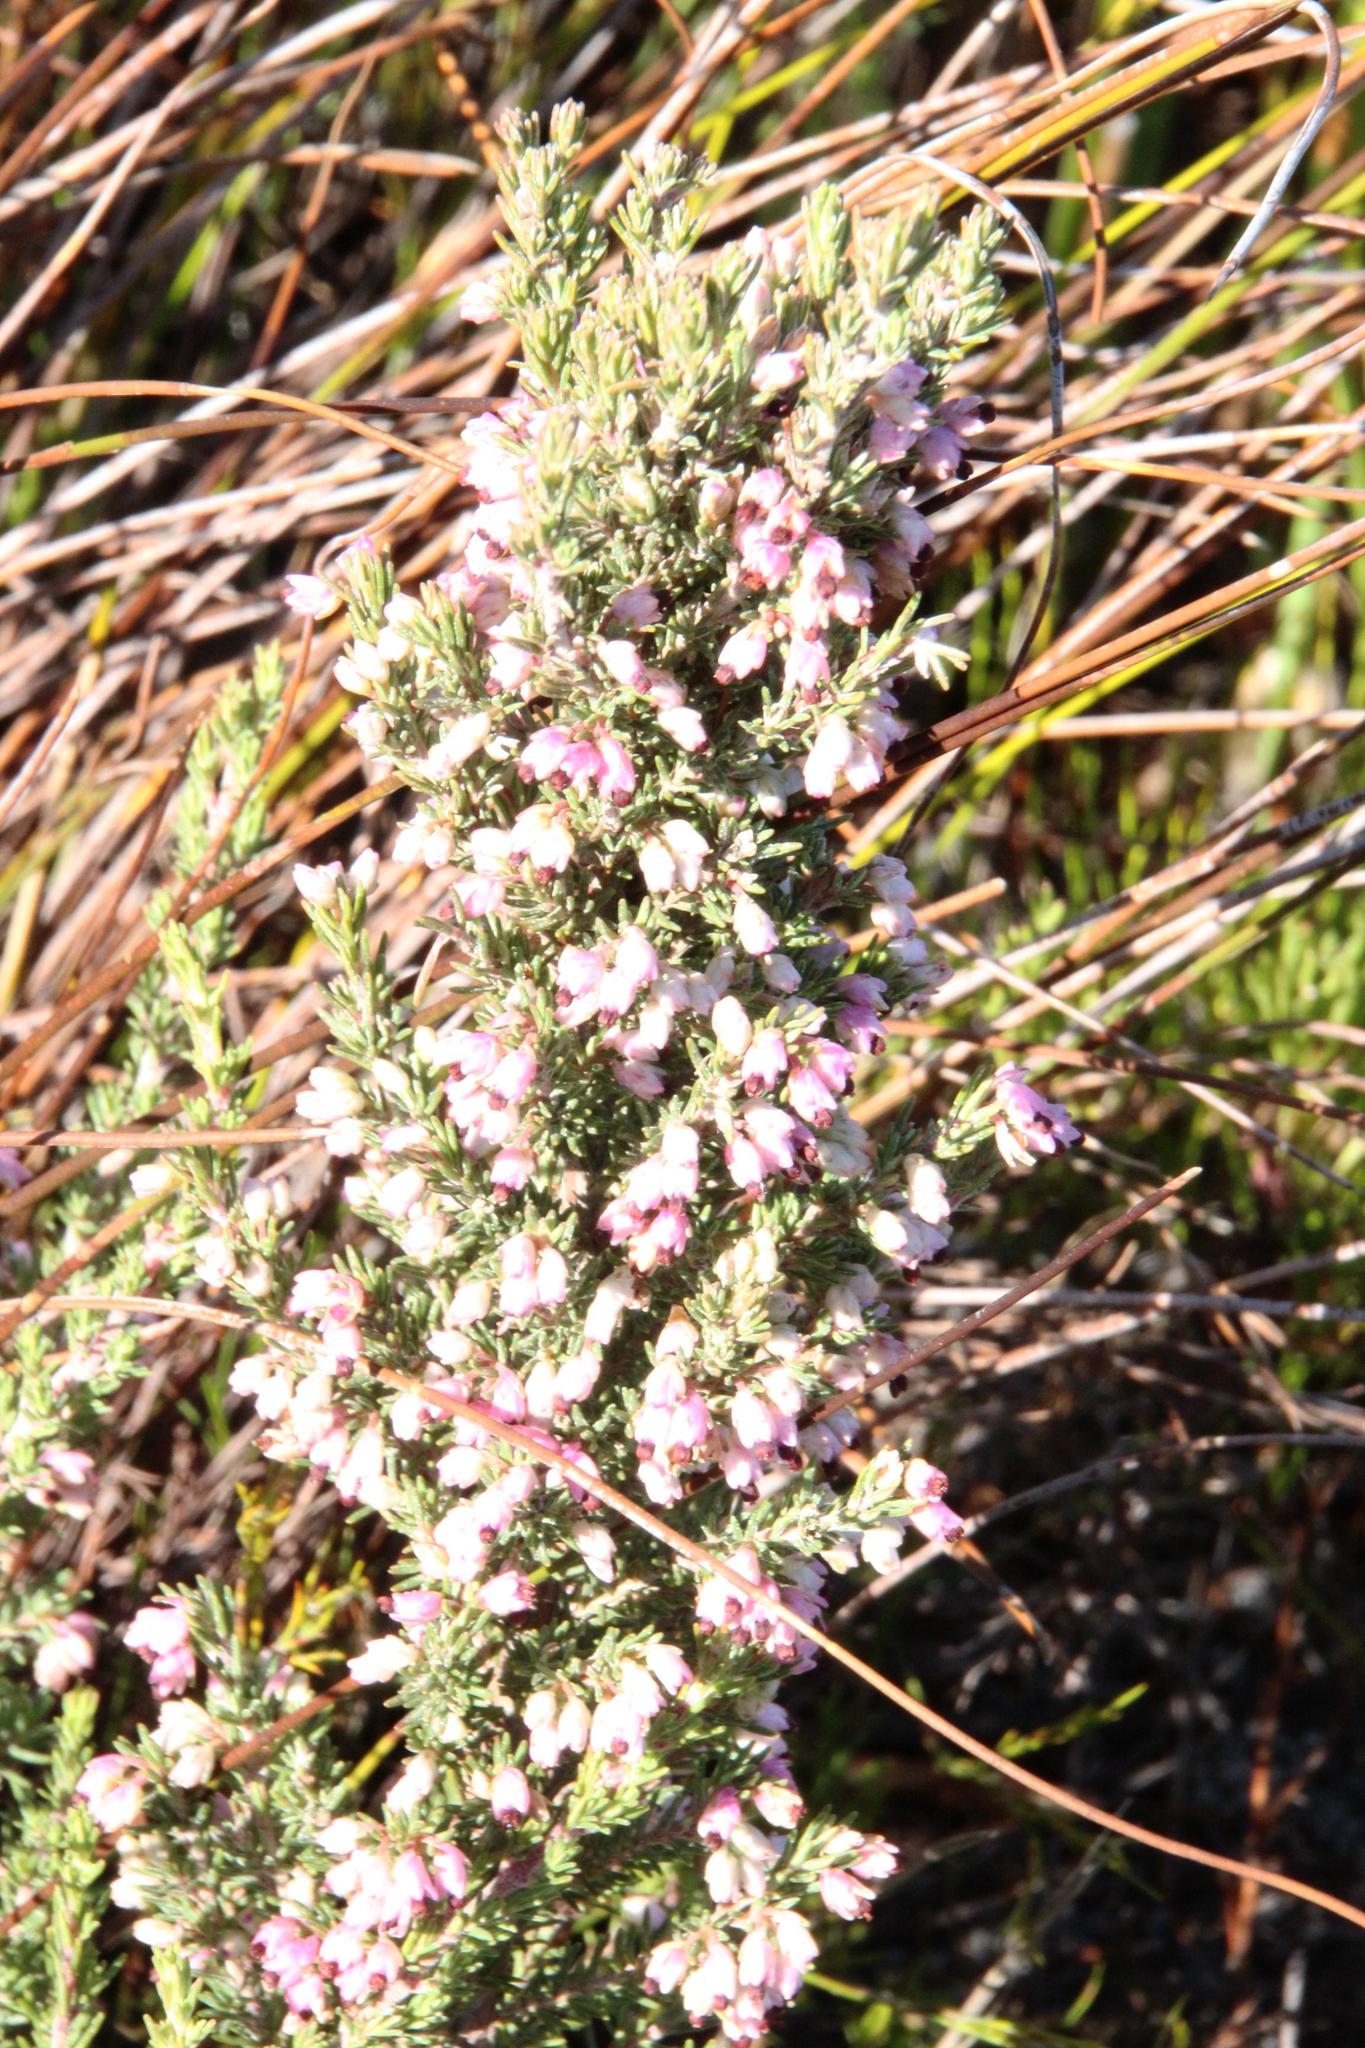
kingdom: Plantae
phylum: Tracheophyta
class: Magnoliopsida
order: Ericales
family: Ericaceae
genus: Erica
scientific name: Erica placentiflora
